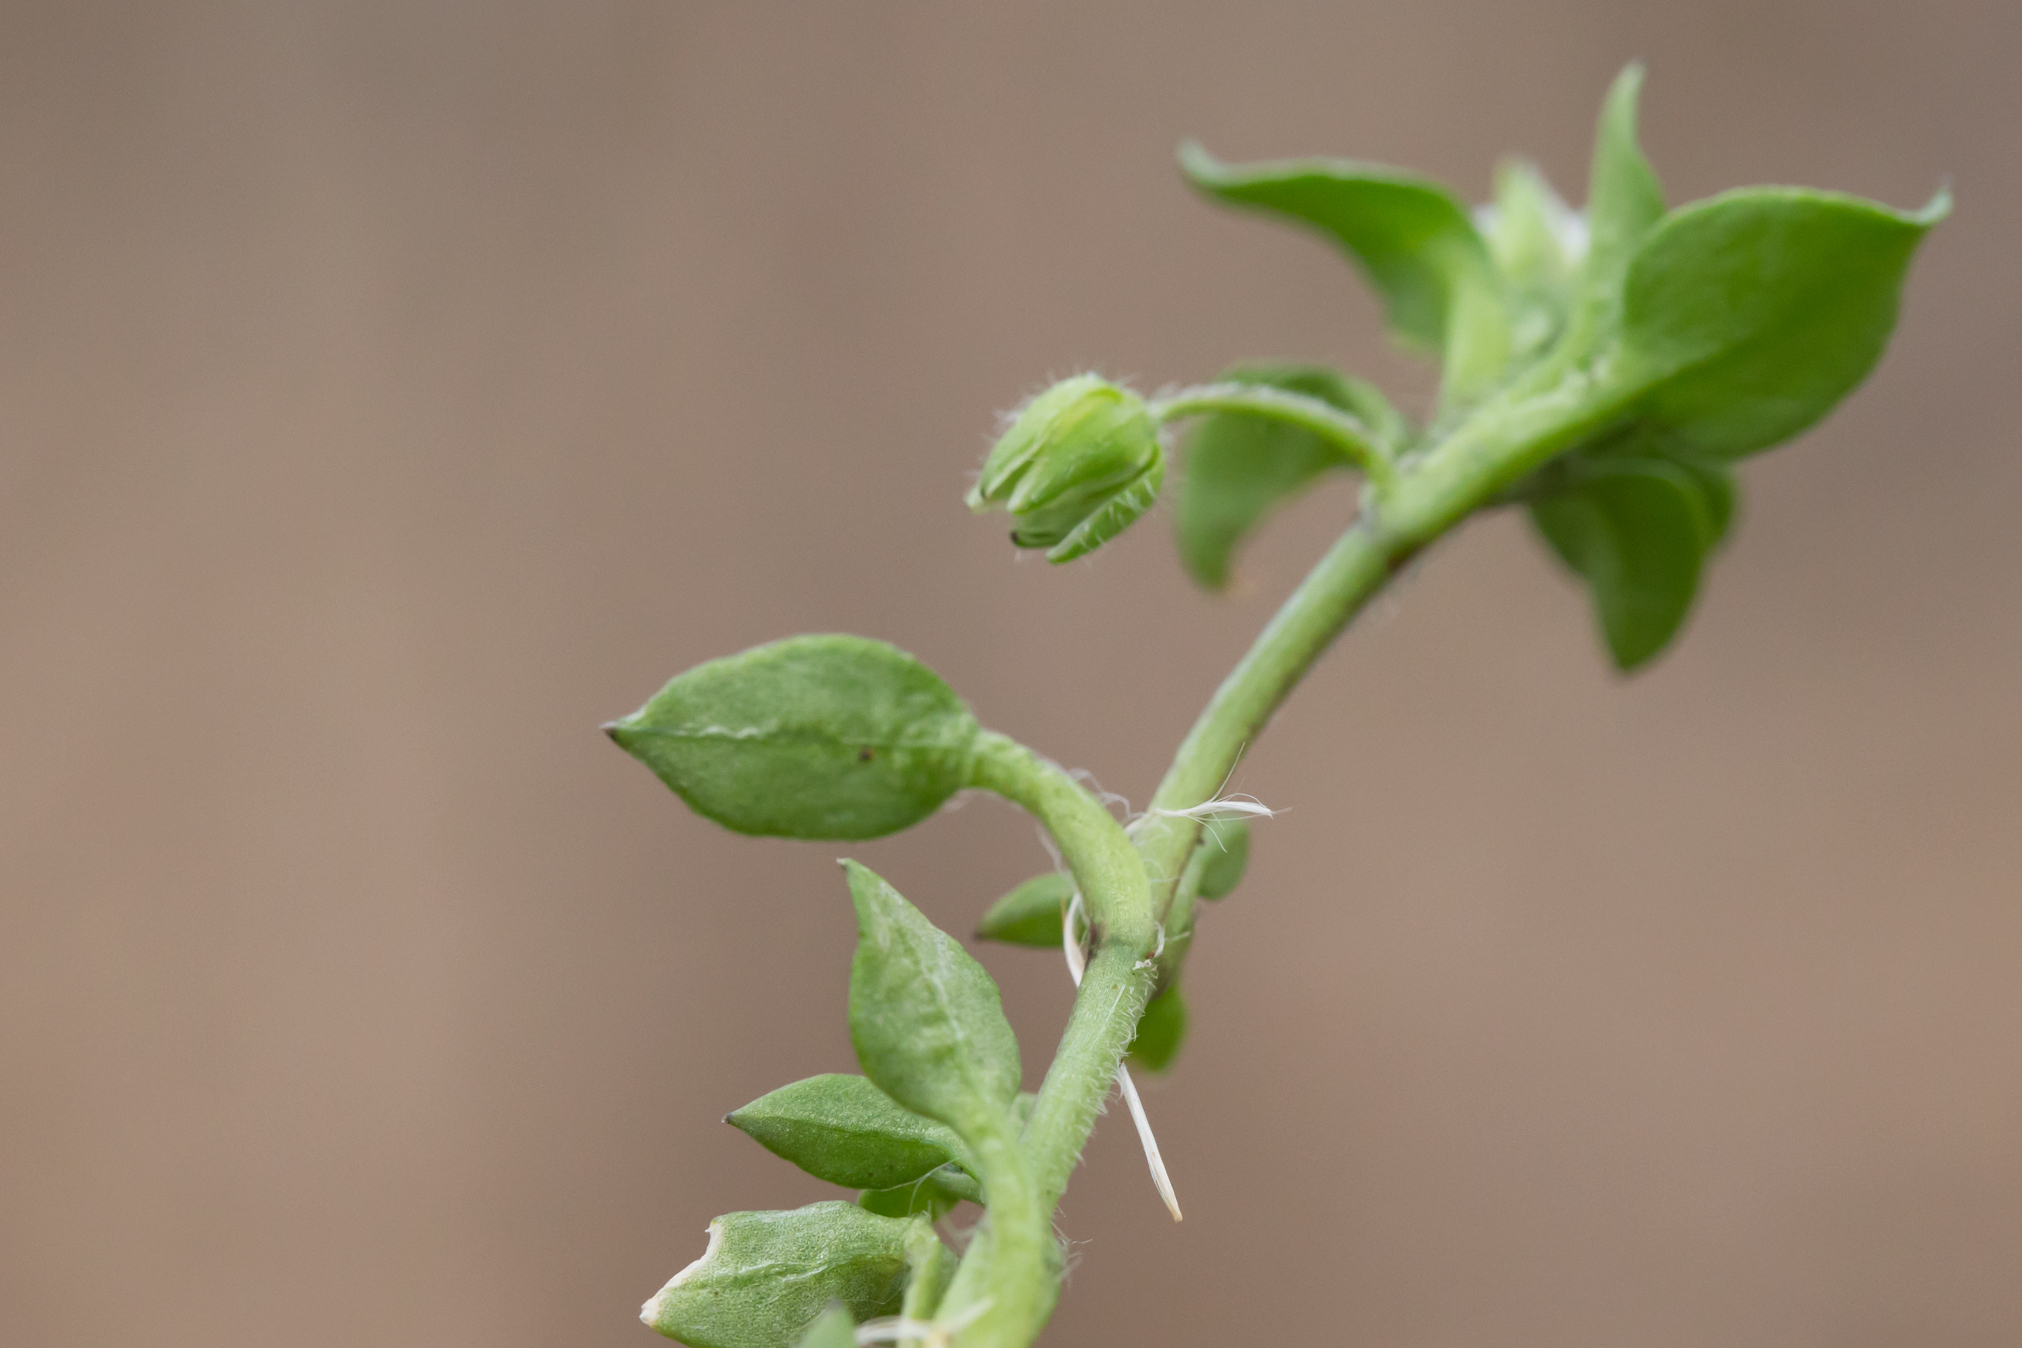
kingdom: Plantae
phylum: Tracheophyta
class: Magnoliopsida
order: Caryophyllales
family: Caryophyllaceae
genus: Stellaria
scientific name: Stellaria media
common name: Common chickweed
